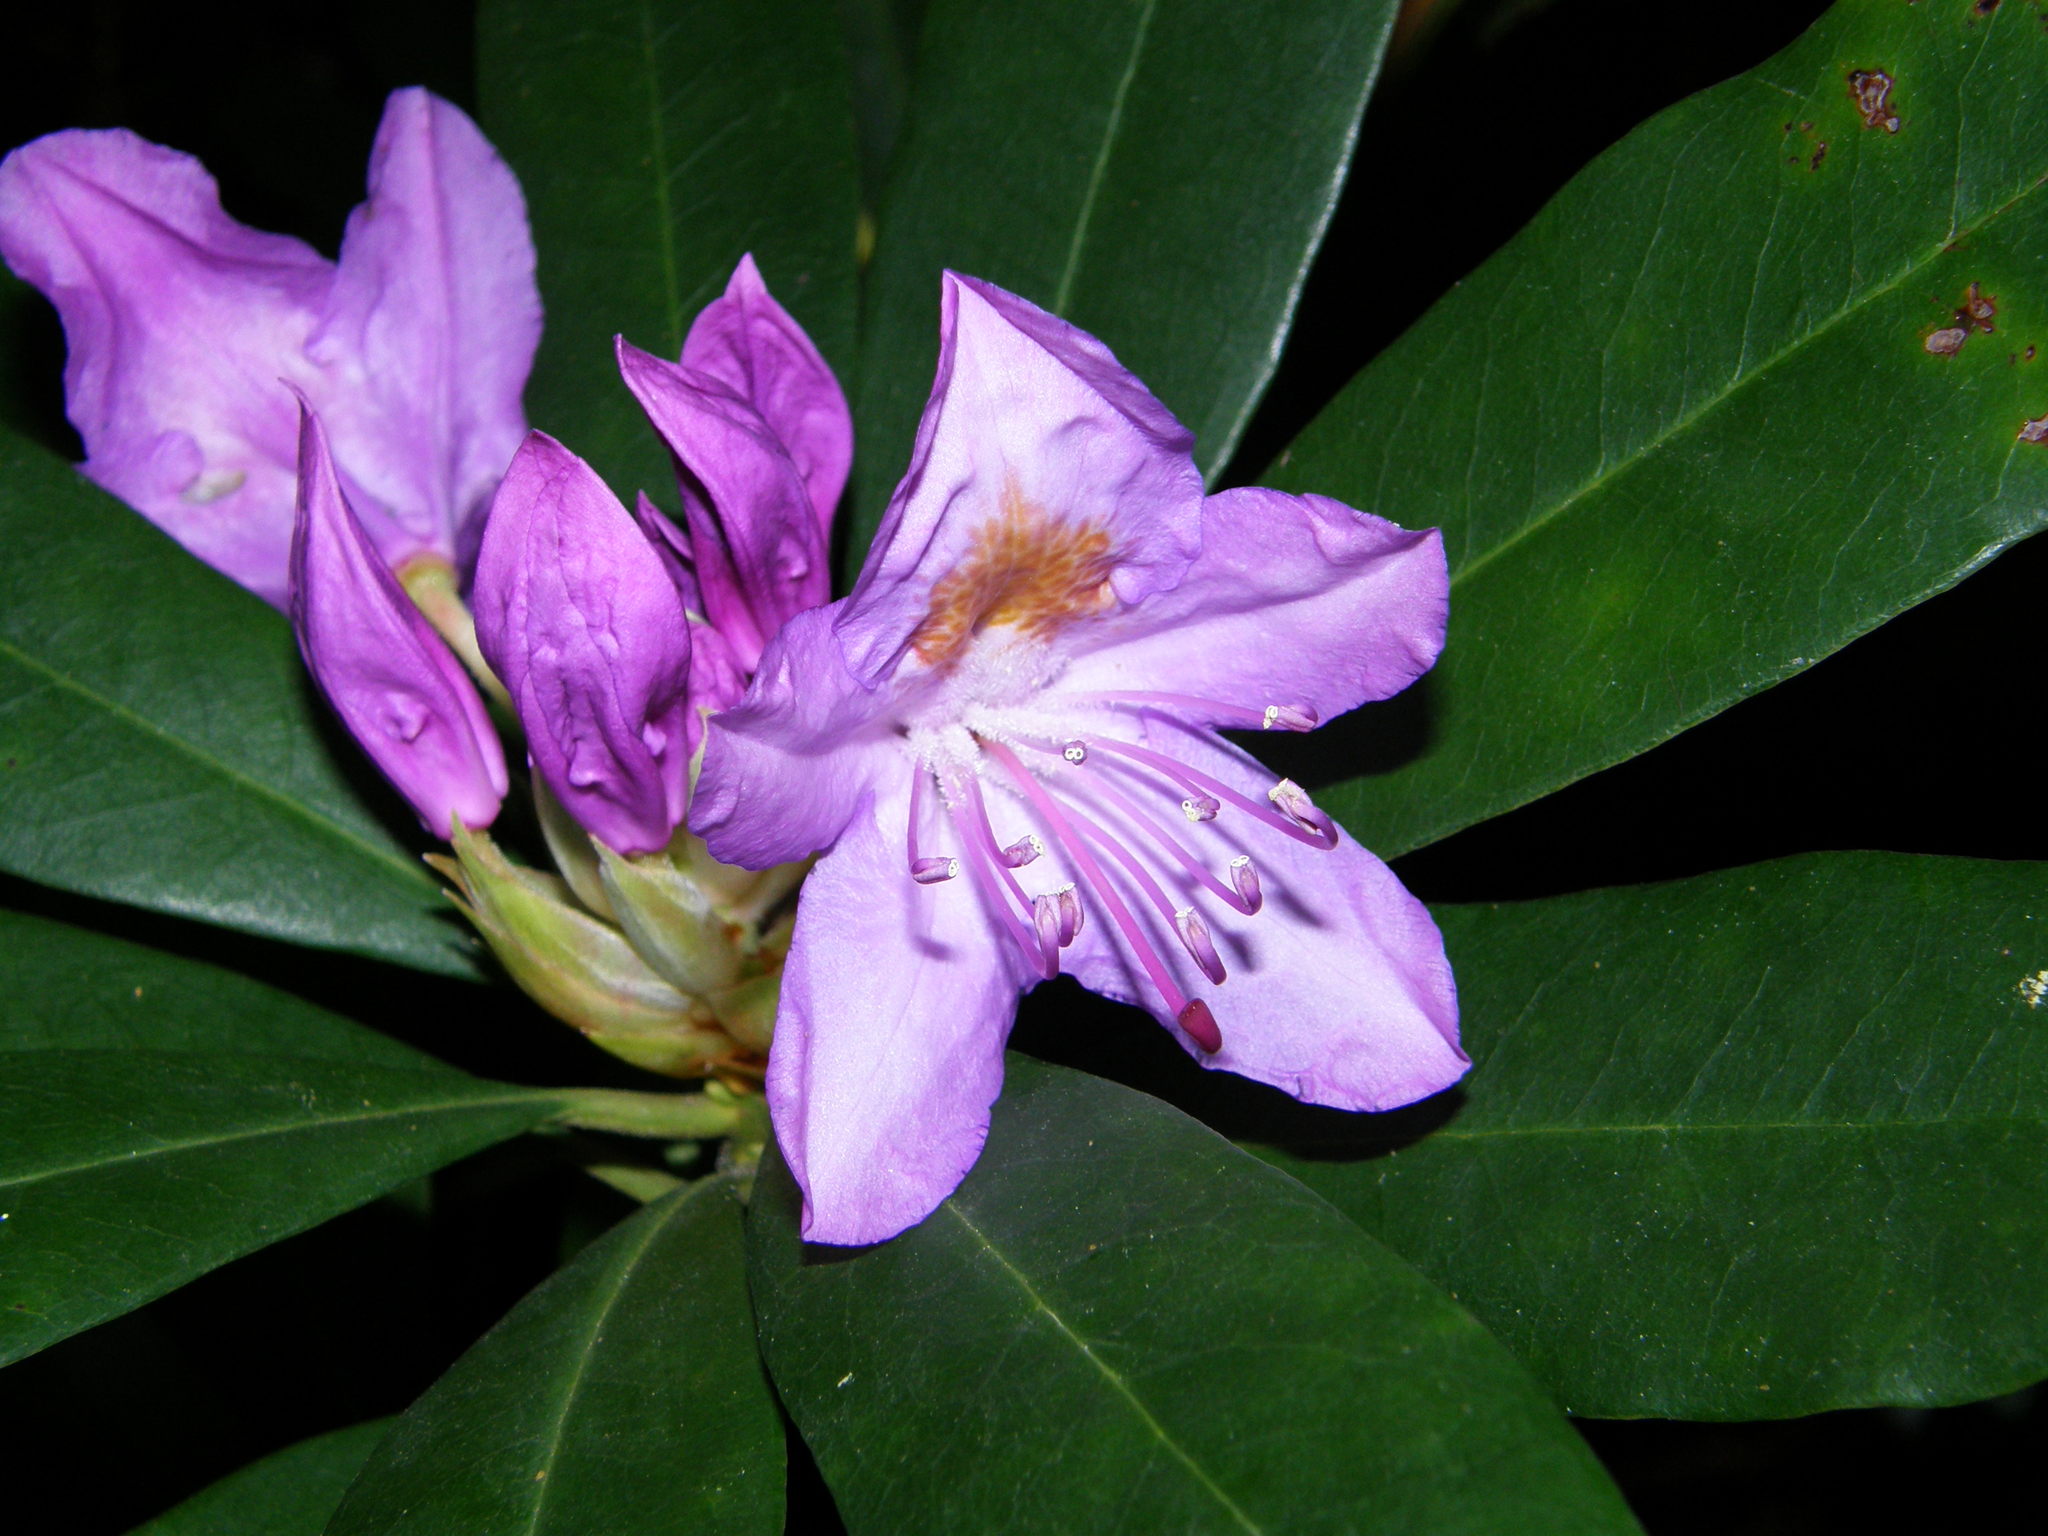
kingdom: Plantae
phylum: Tracheophyta
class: Magnoliopsida
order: Ericales
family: Ericaceae
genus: Rhododendron
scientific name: Rhododendron ponticum
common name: Rhododendron
